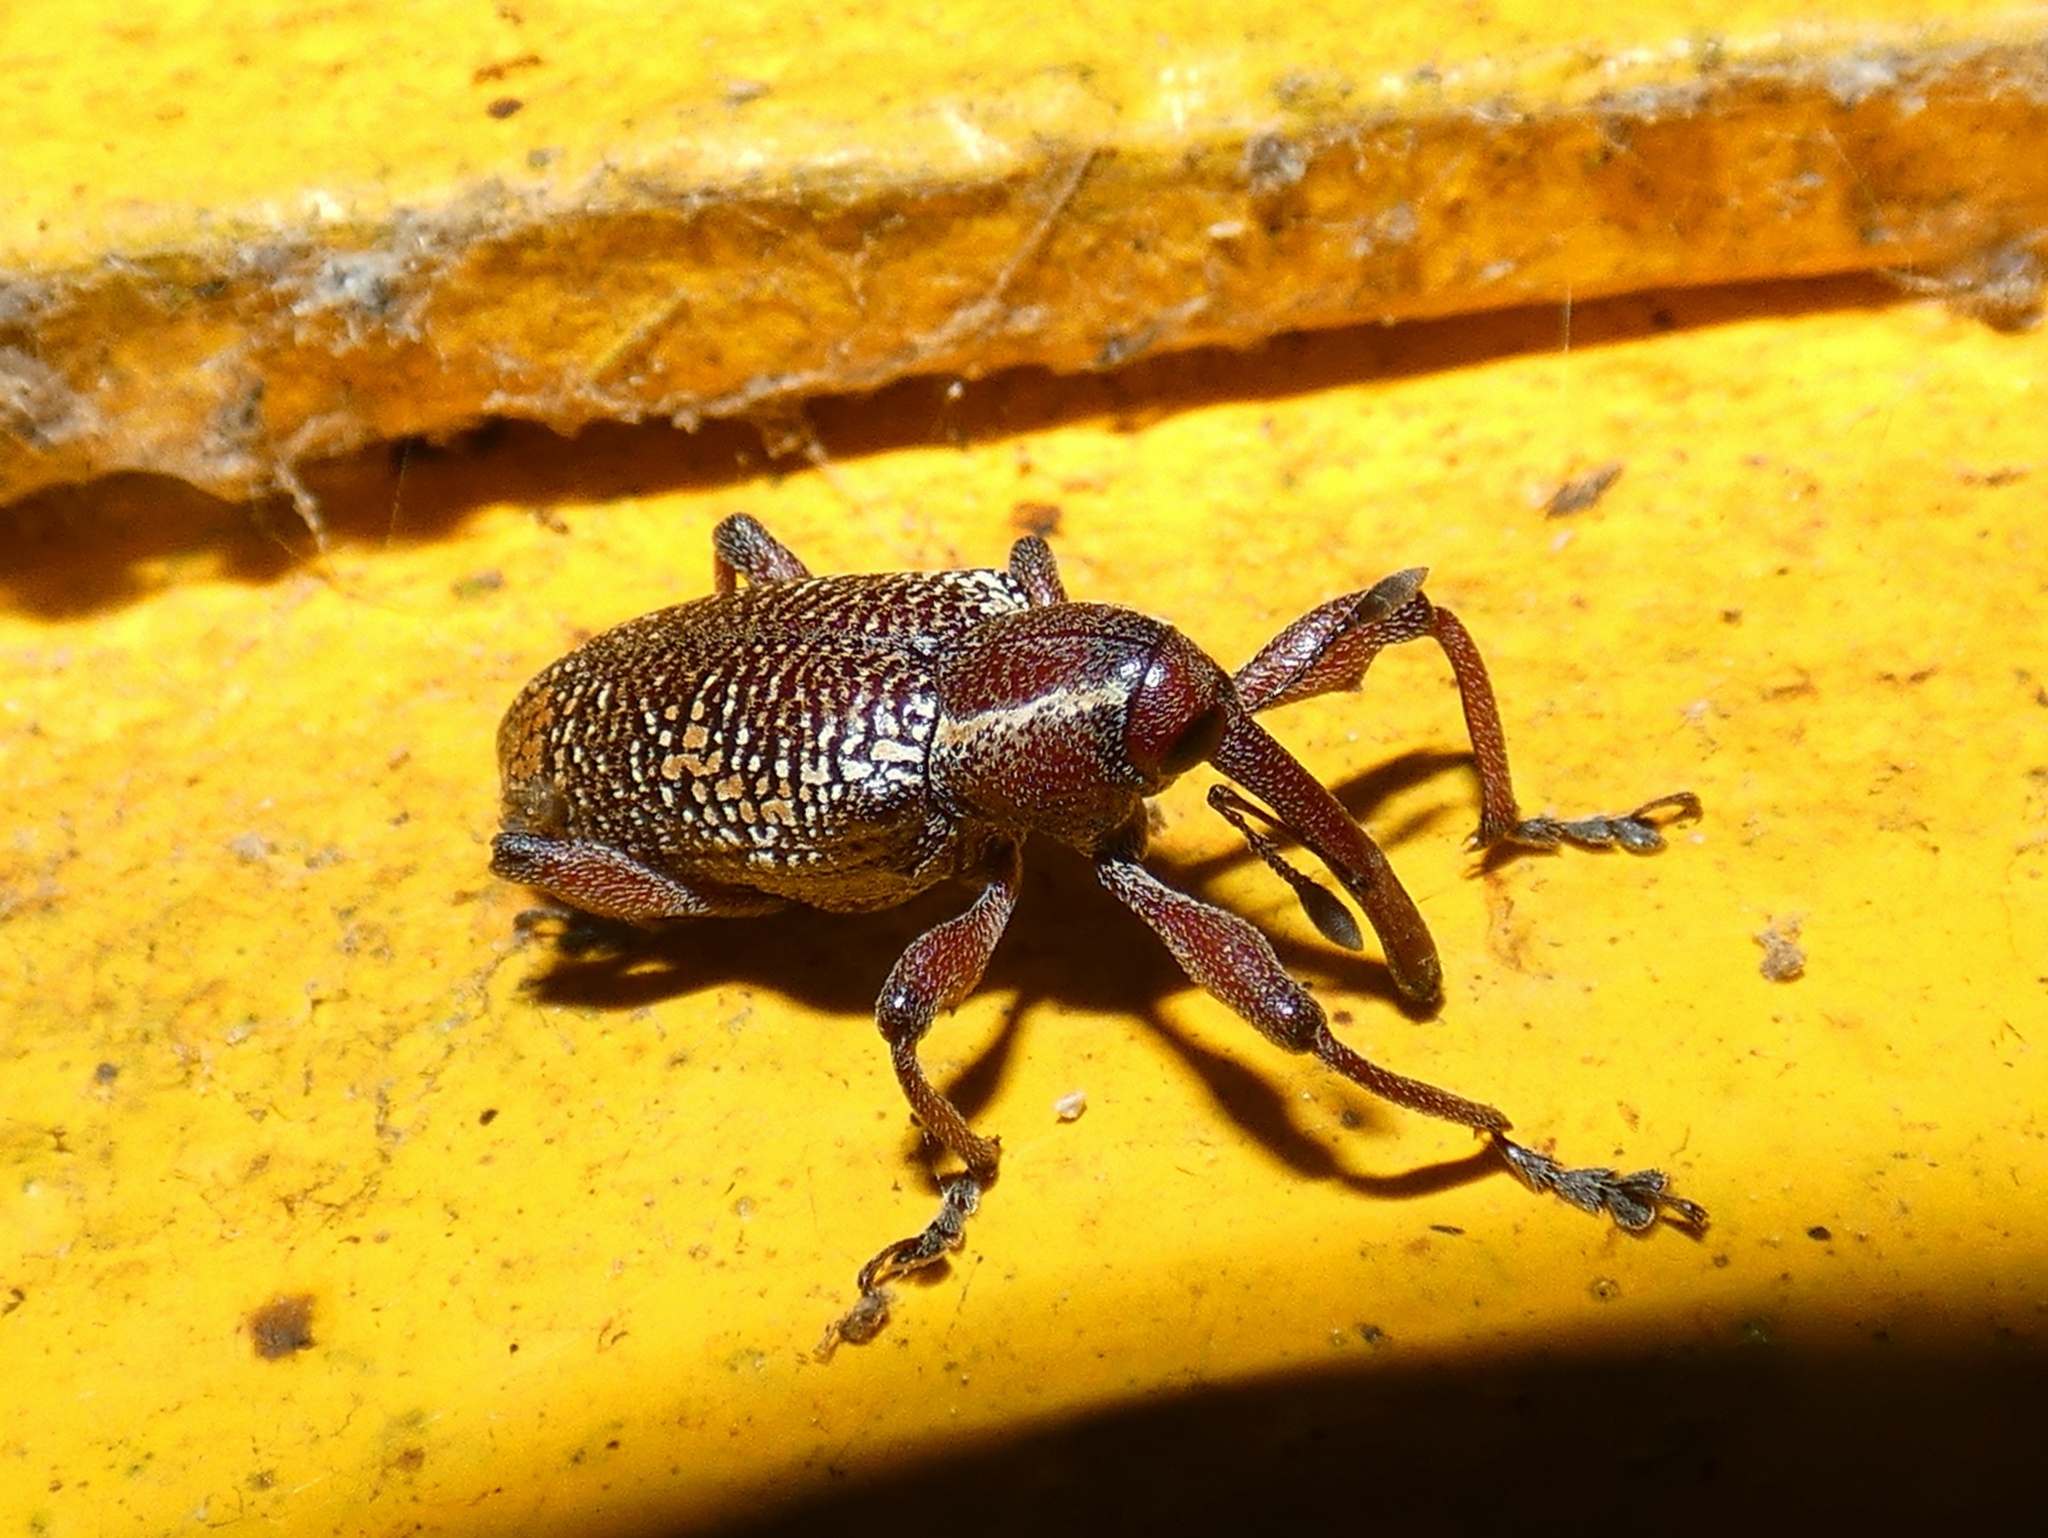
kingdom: Animalia
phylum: Arthropoda
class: Insecta
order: Coleoptera
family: Curculionidae
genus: Heilipus
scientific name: Heilipus lauri
